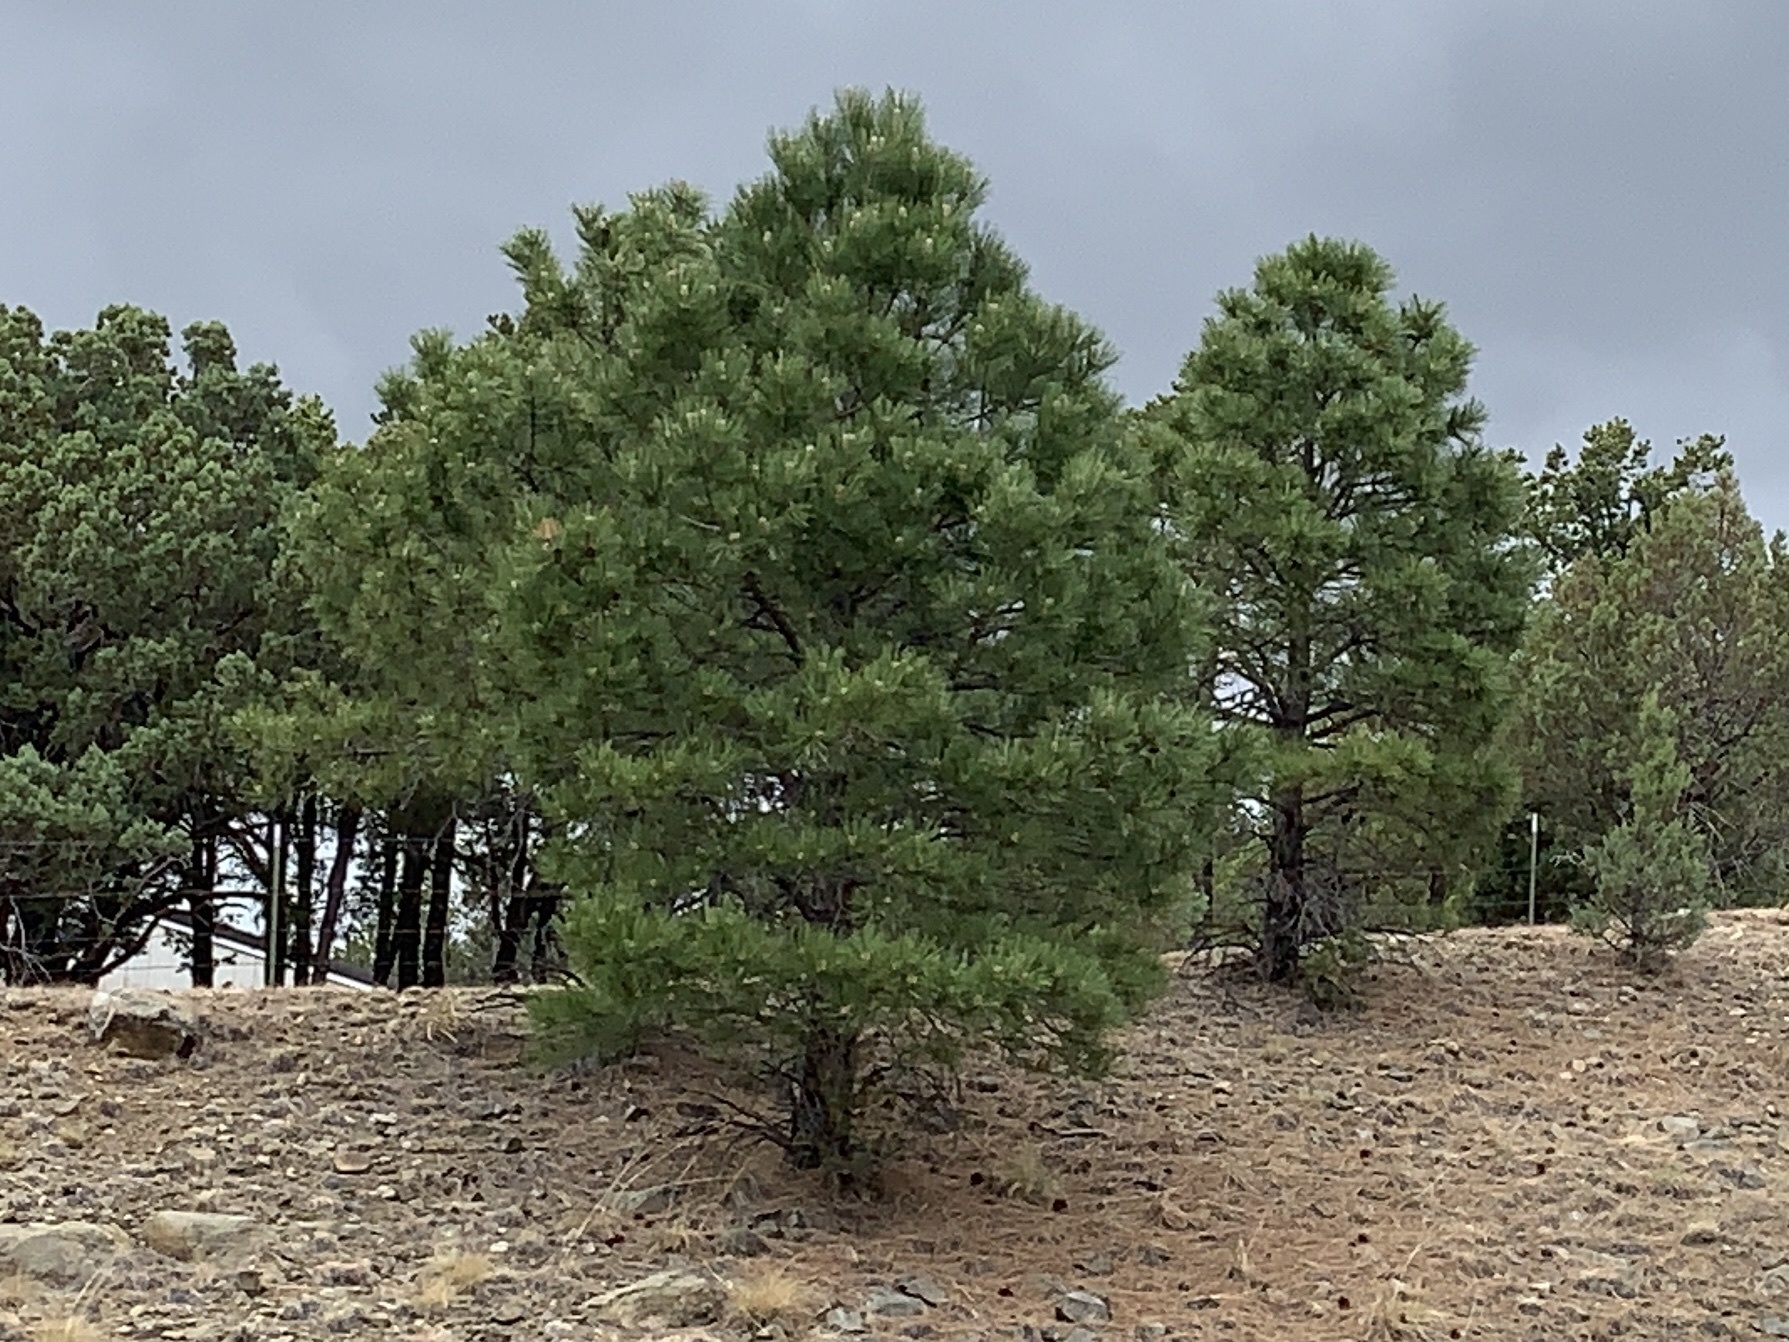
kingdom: Plantae
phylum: Tracheophyta
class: Pinopsida
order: Pinales
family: Pinaceae
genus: Pinus
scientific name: Pinus ponderosa
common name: Western yellow-pine
